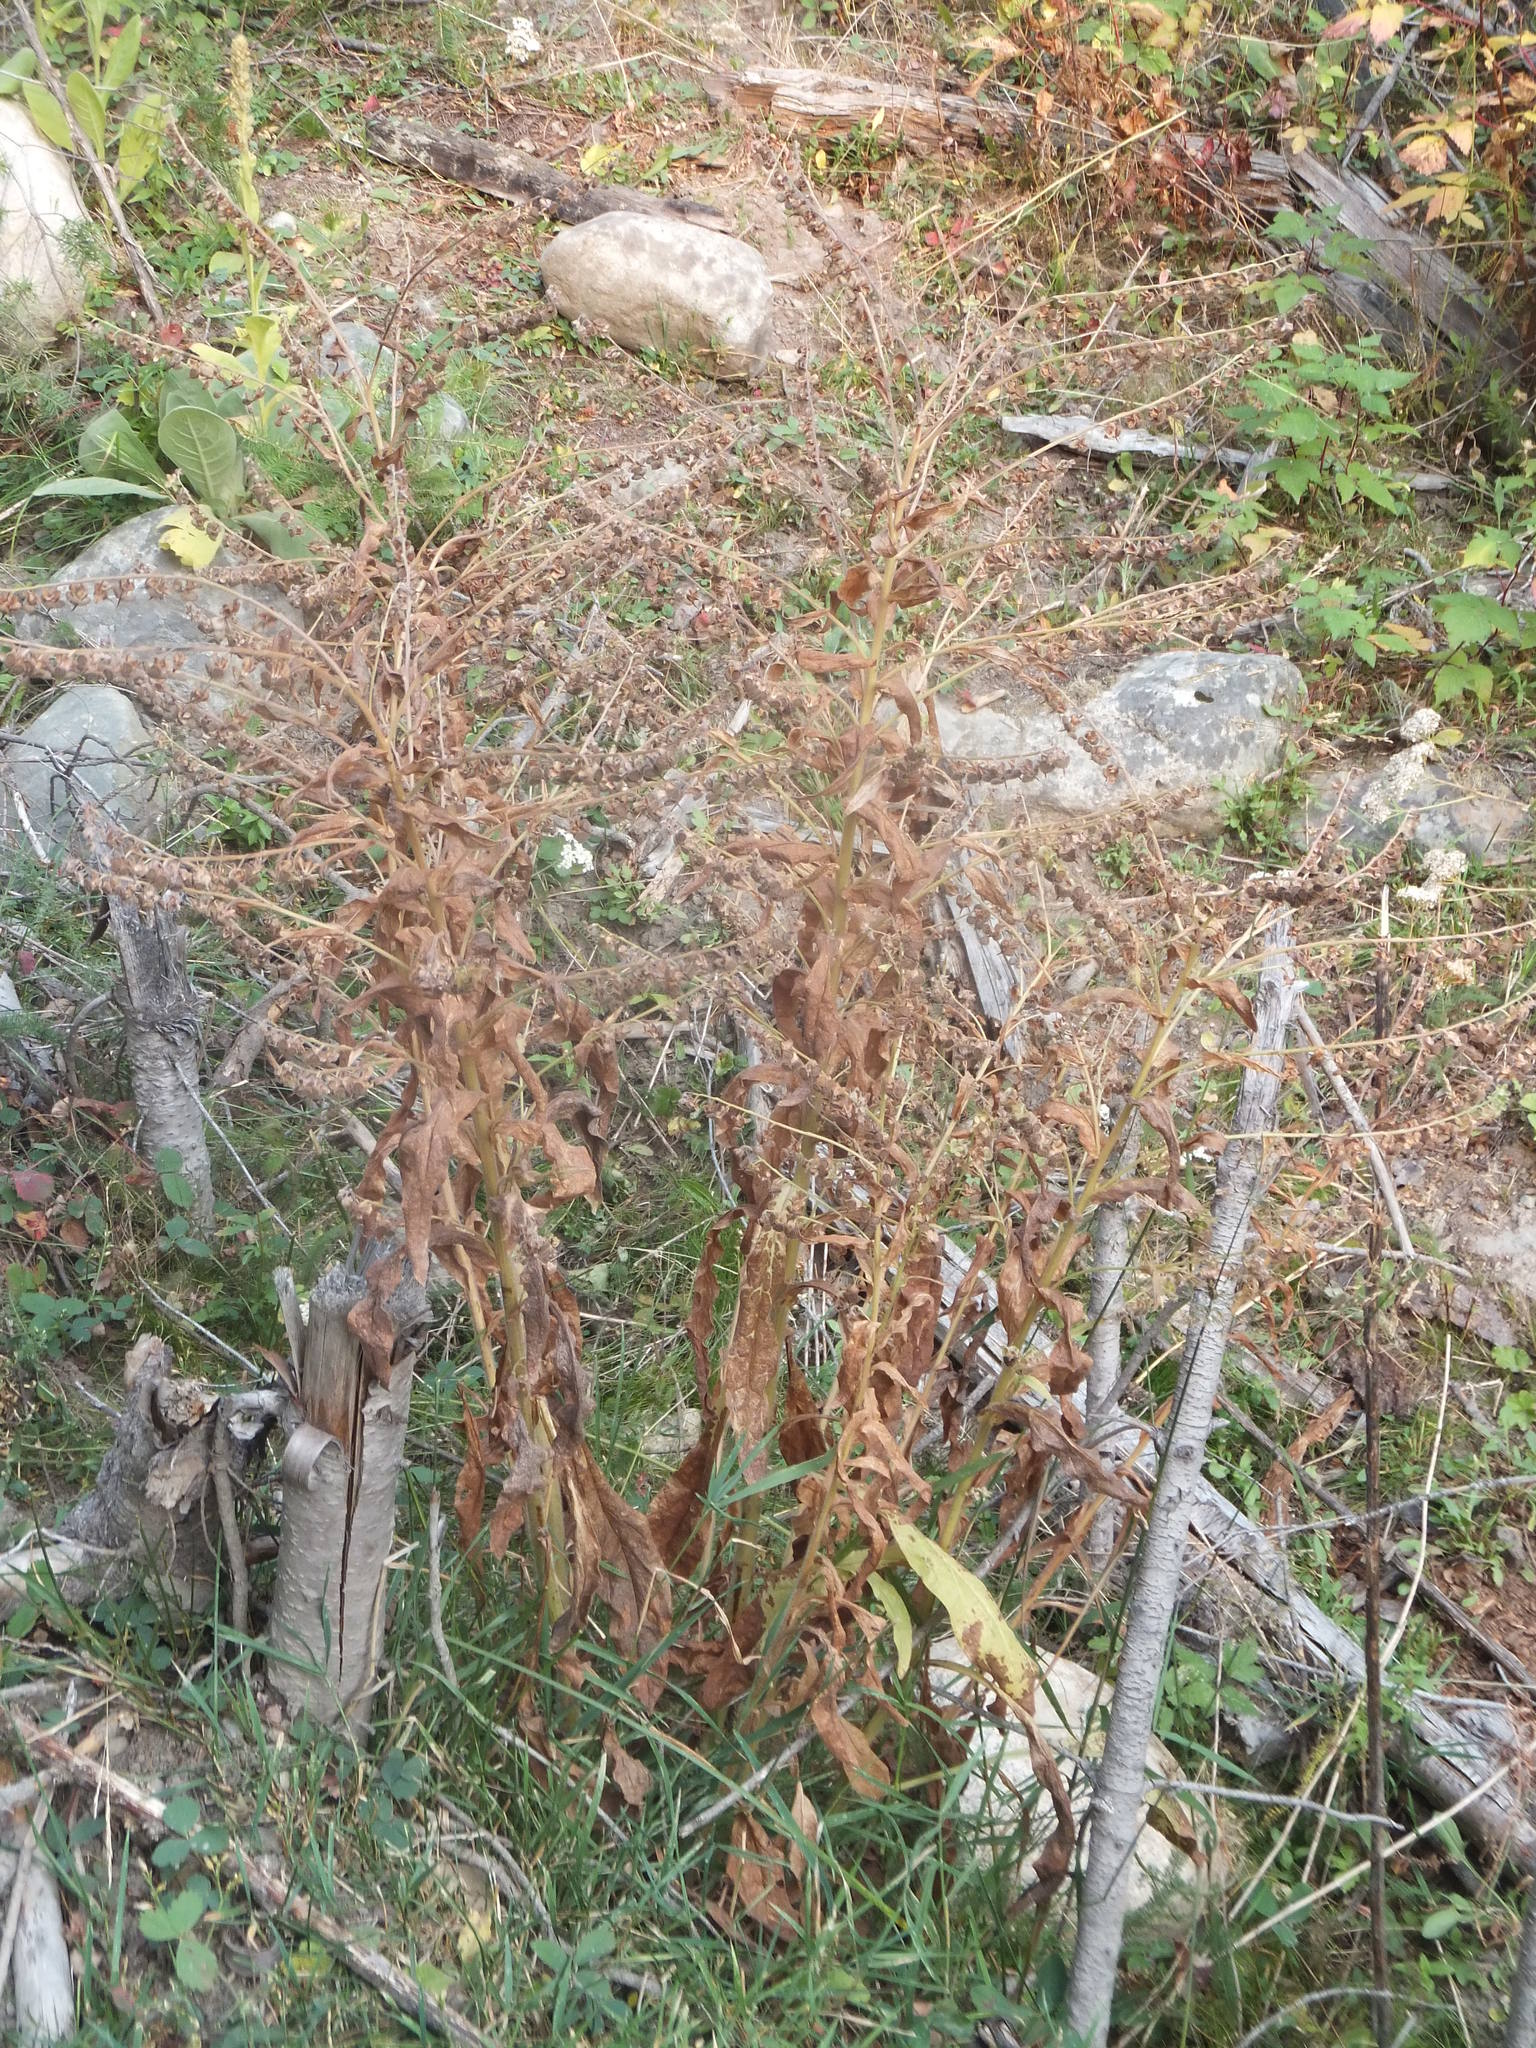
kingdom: Plantae
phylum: Tracheophyta
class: Magnoliopsida
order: Boraginales
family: Boraginaceae
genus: Cynoglossum
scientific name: Cynoglossum officinale
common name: Hound's-tongue
